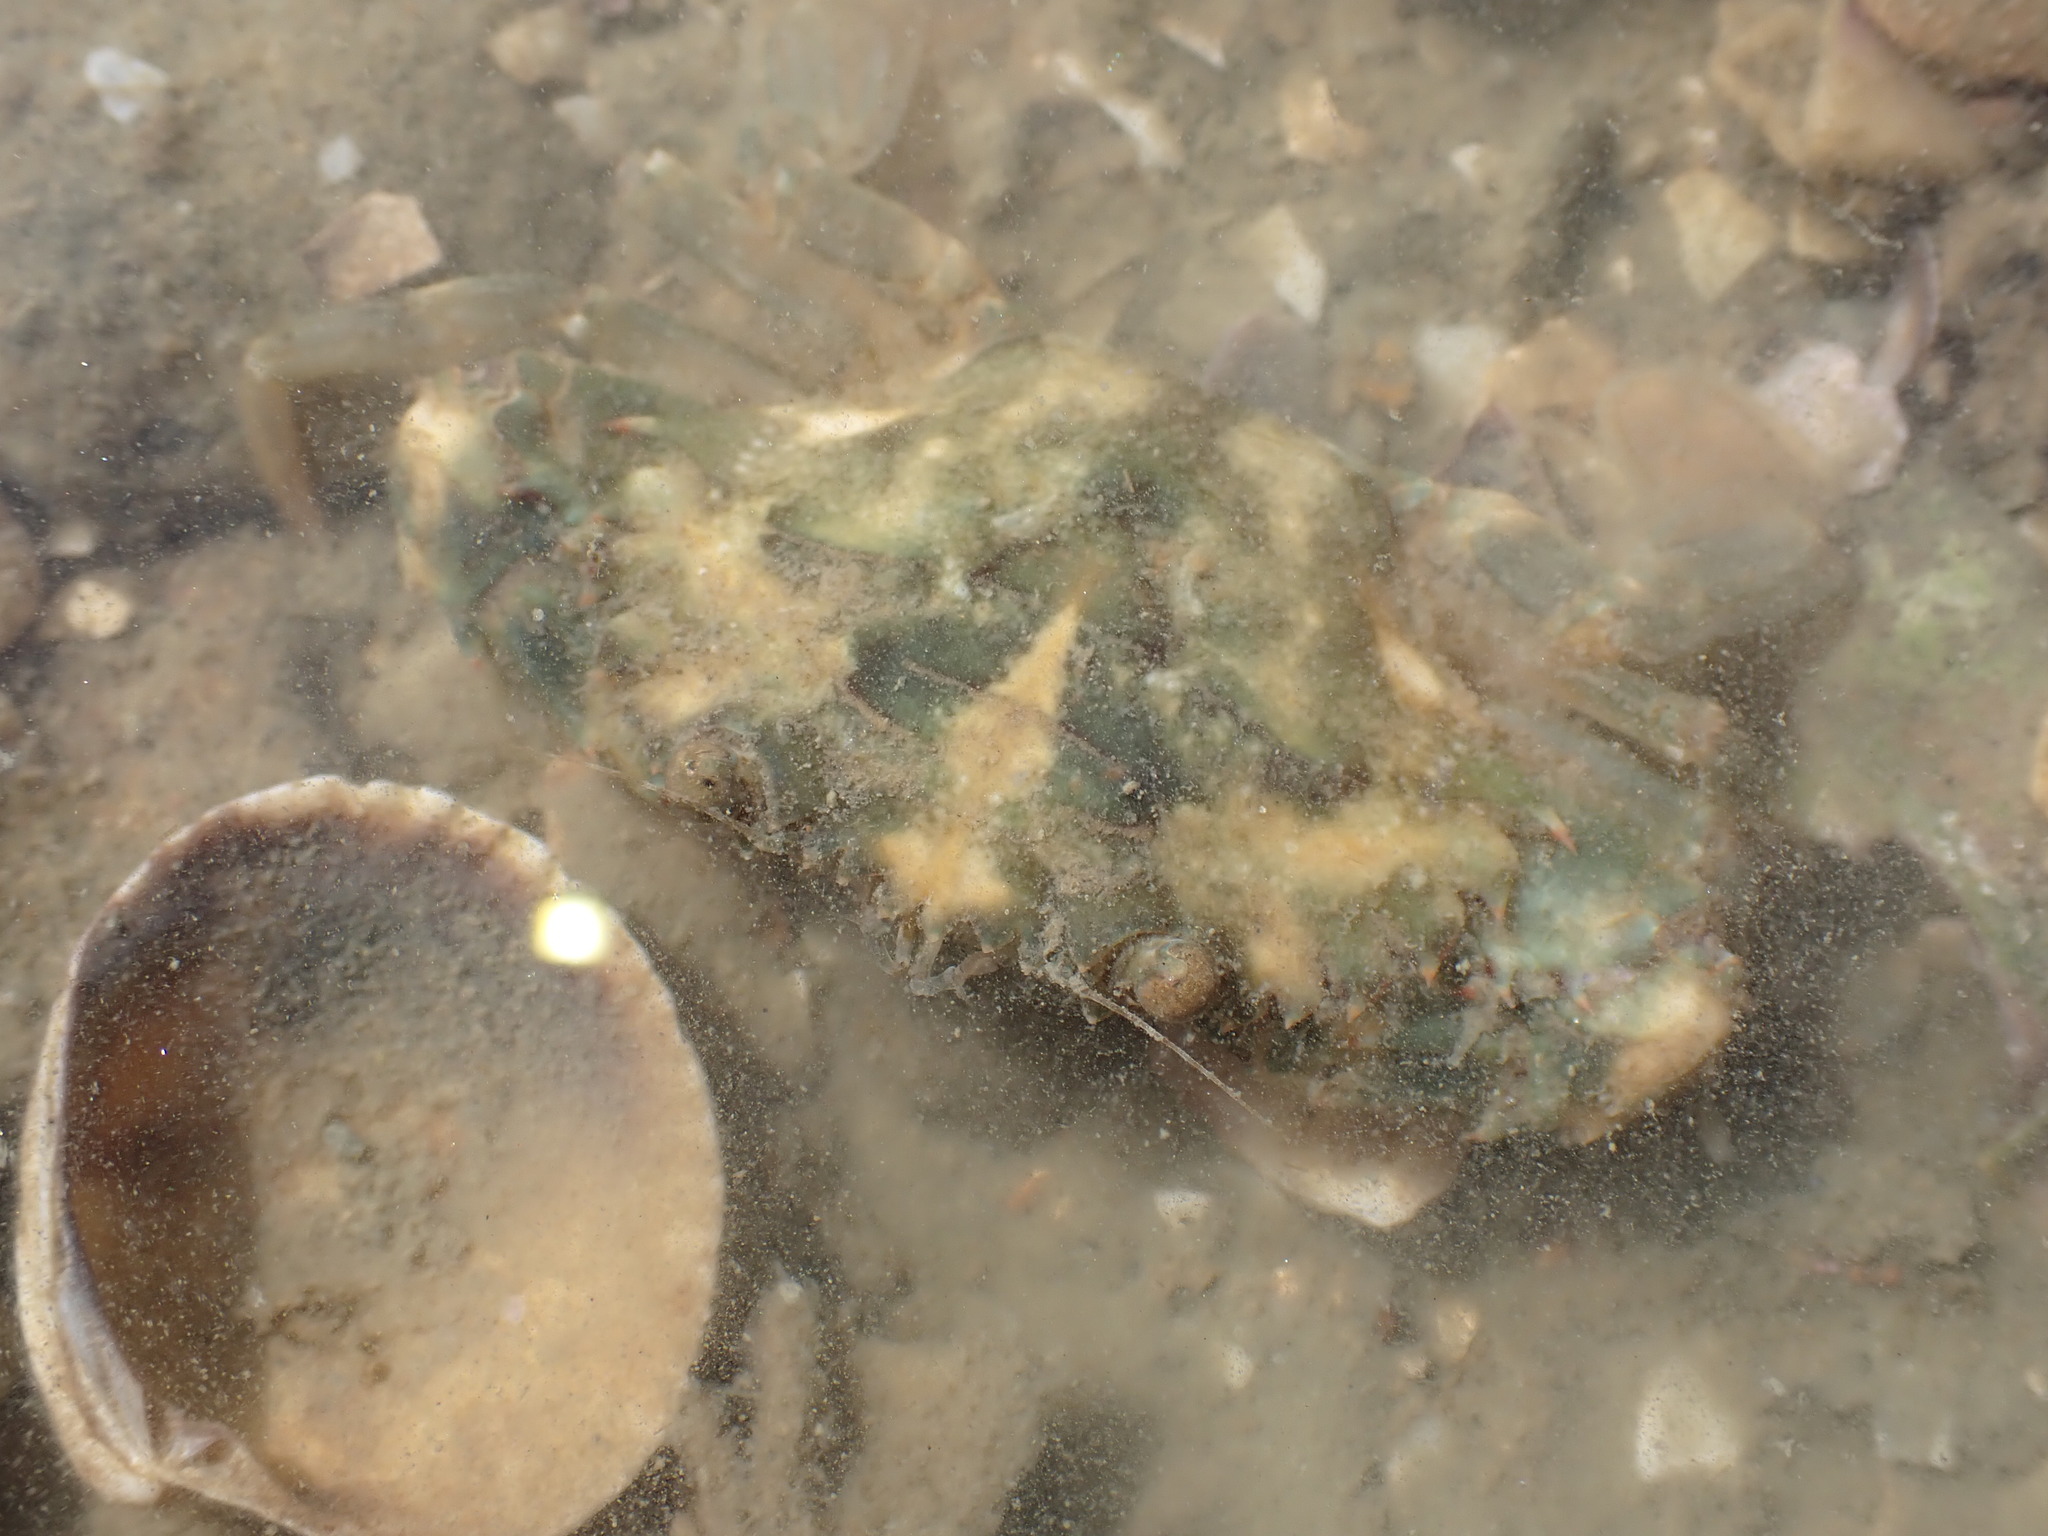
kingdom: Animalia
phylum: Arthropoda
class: Malacostraca
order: Decapoda
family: Portunidae
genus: Charybdis
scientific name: Charybdis japonica
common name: Asian paddle crab
